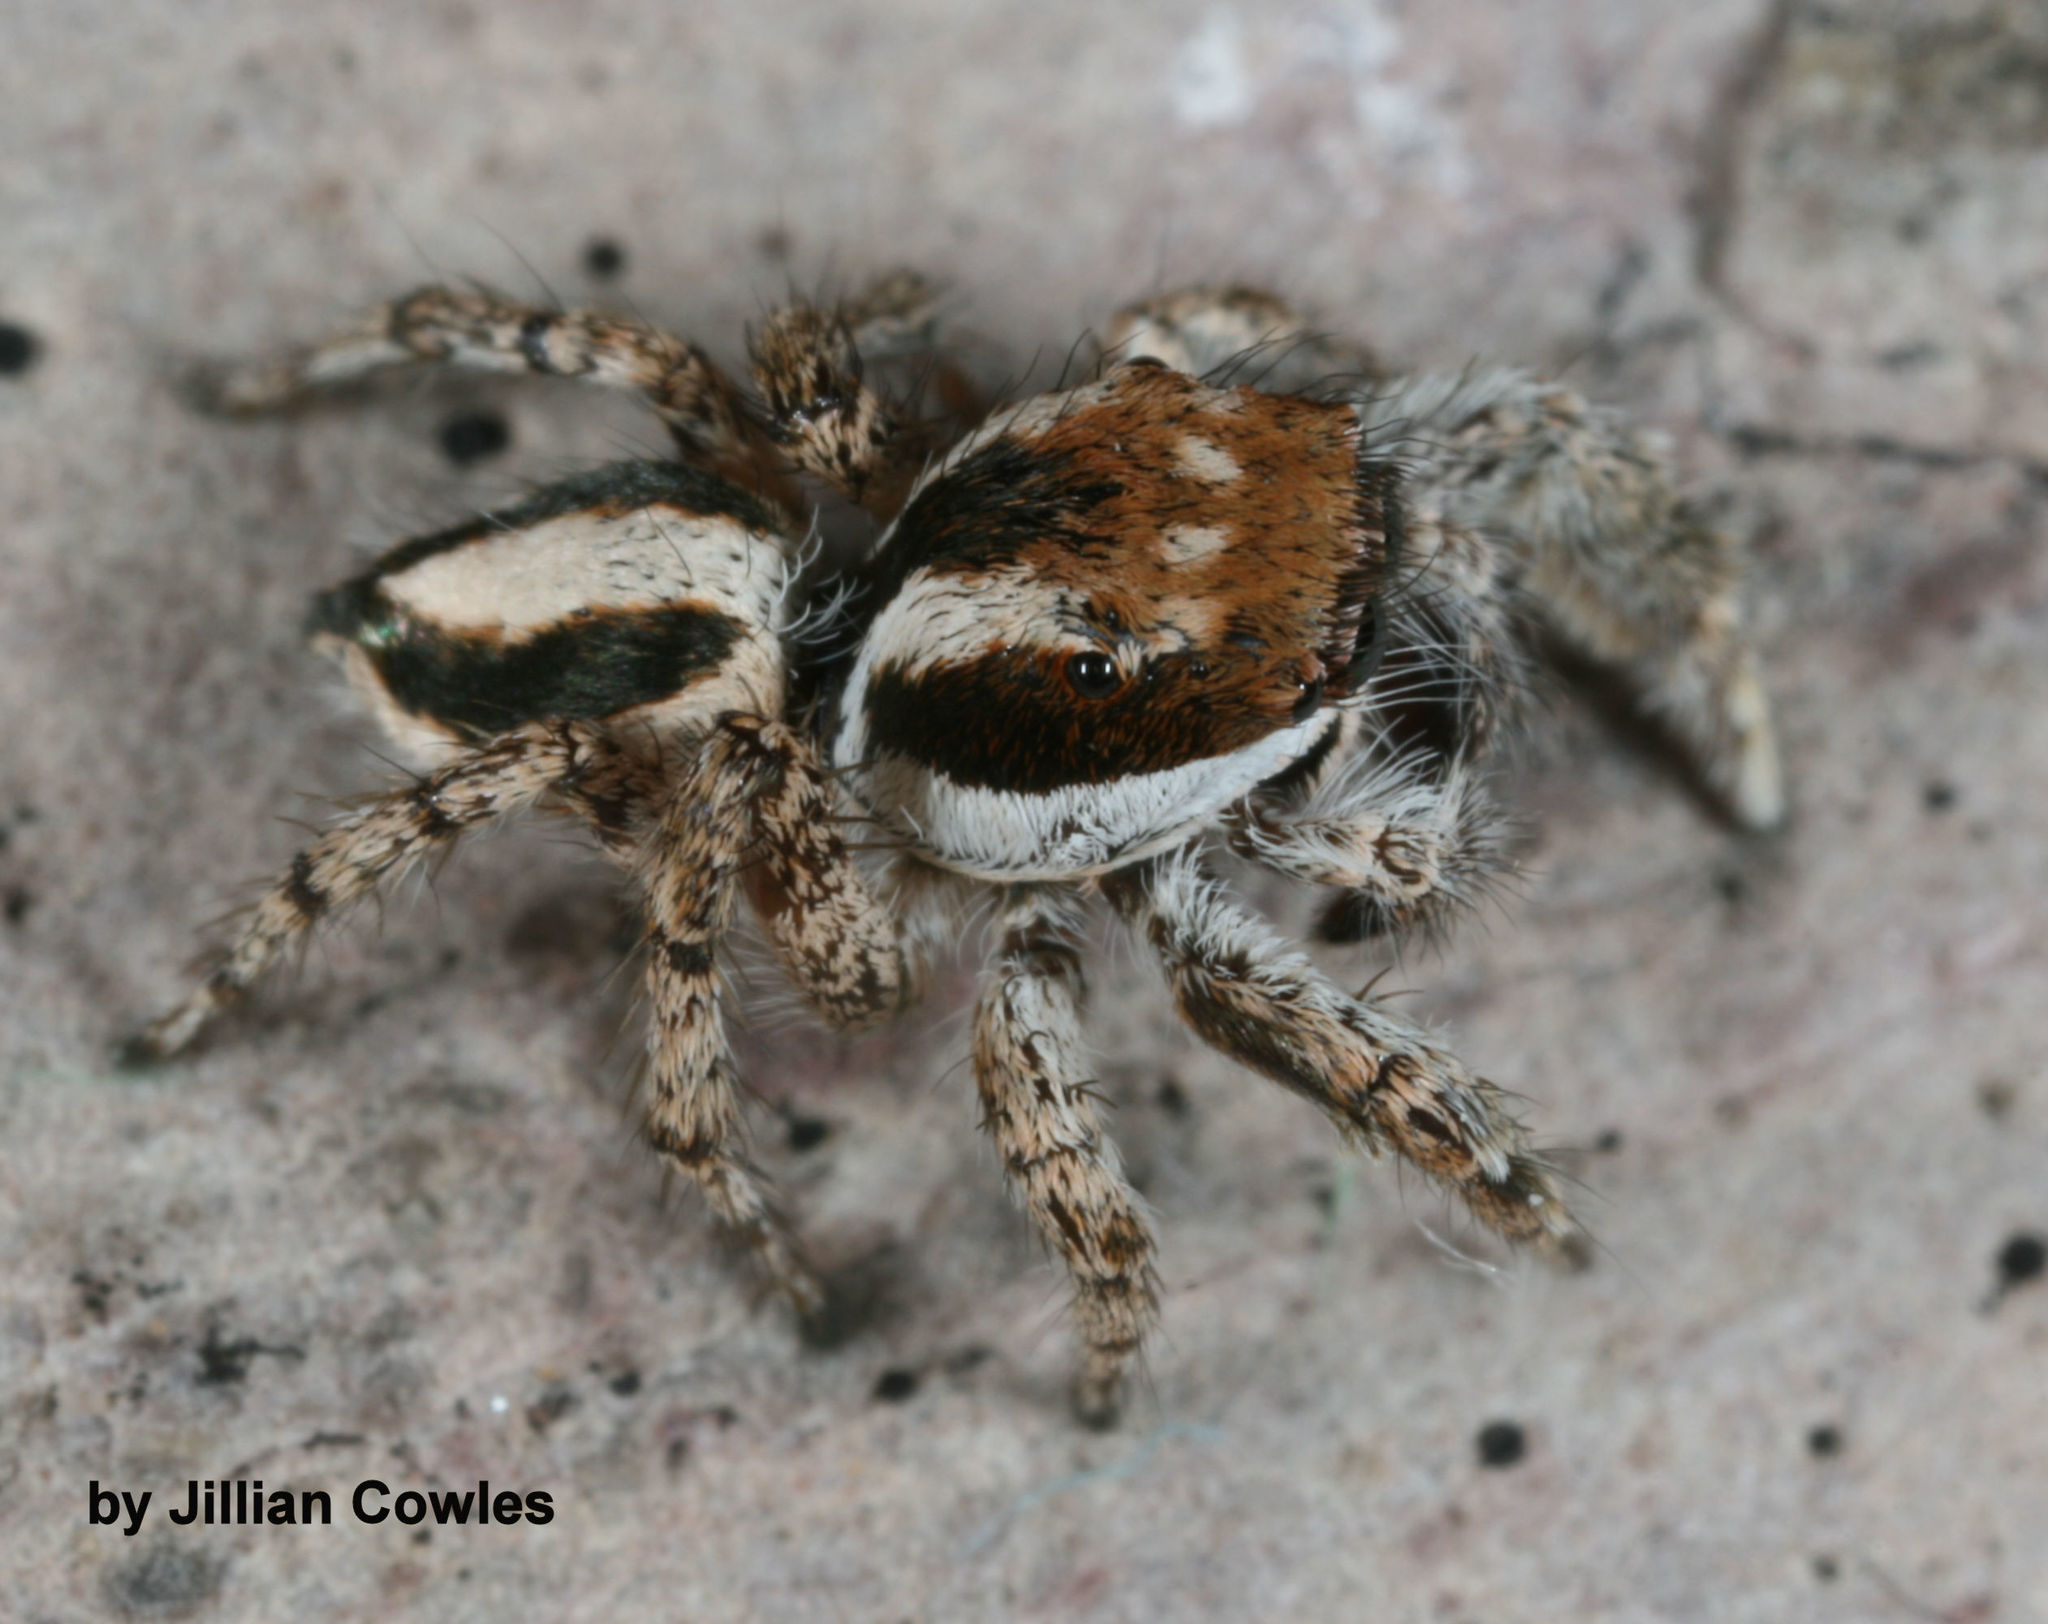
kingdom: Animalia
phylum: Arthropoda
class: Arachnida
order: Araneae
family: Salticidae
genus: Habronattus
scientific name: Habronattus conjunctus
